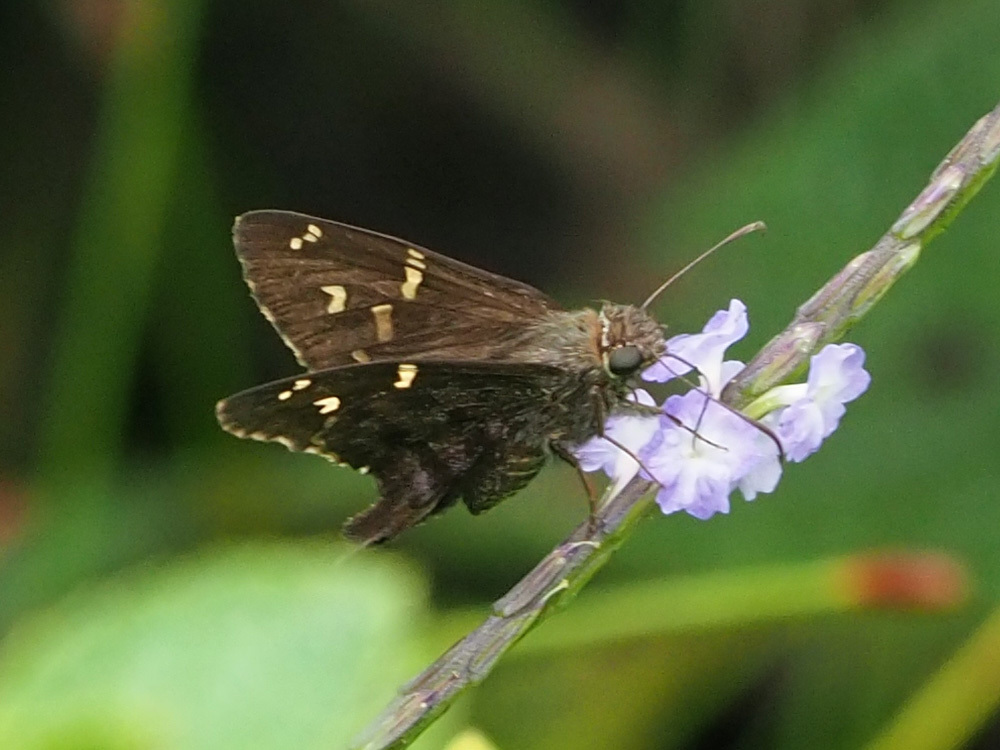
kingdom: Animalia
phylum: Arthropoda
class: Insecta
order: Lepidoptera
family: Hesperiidae
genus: Thorybes
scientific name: Thorybes
